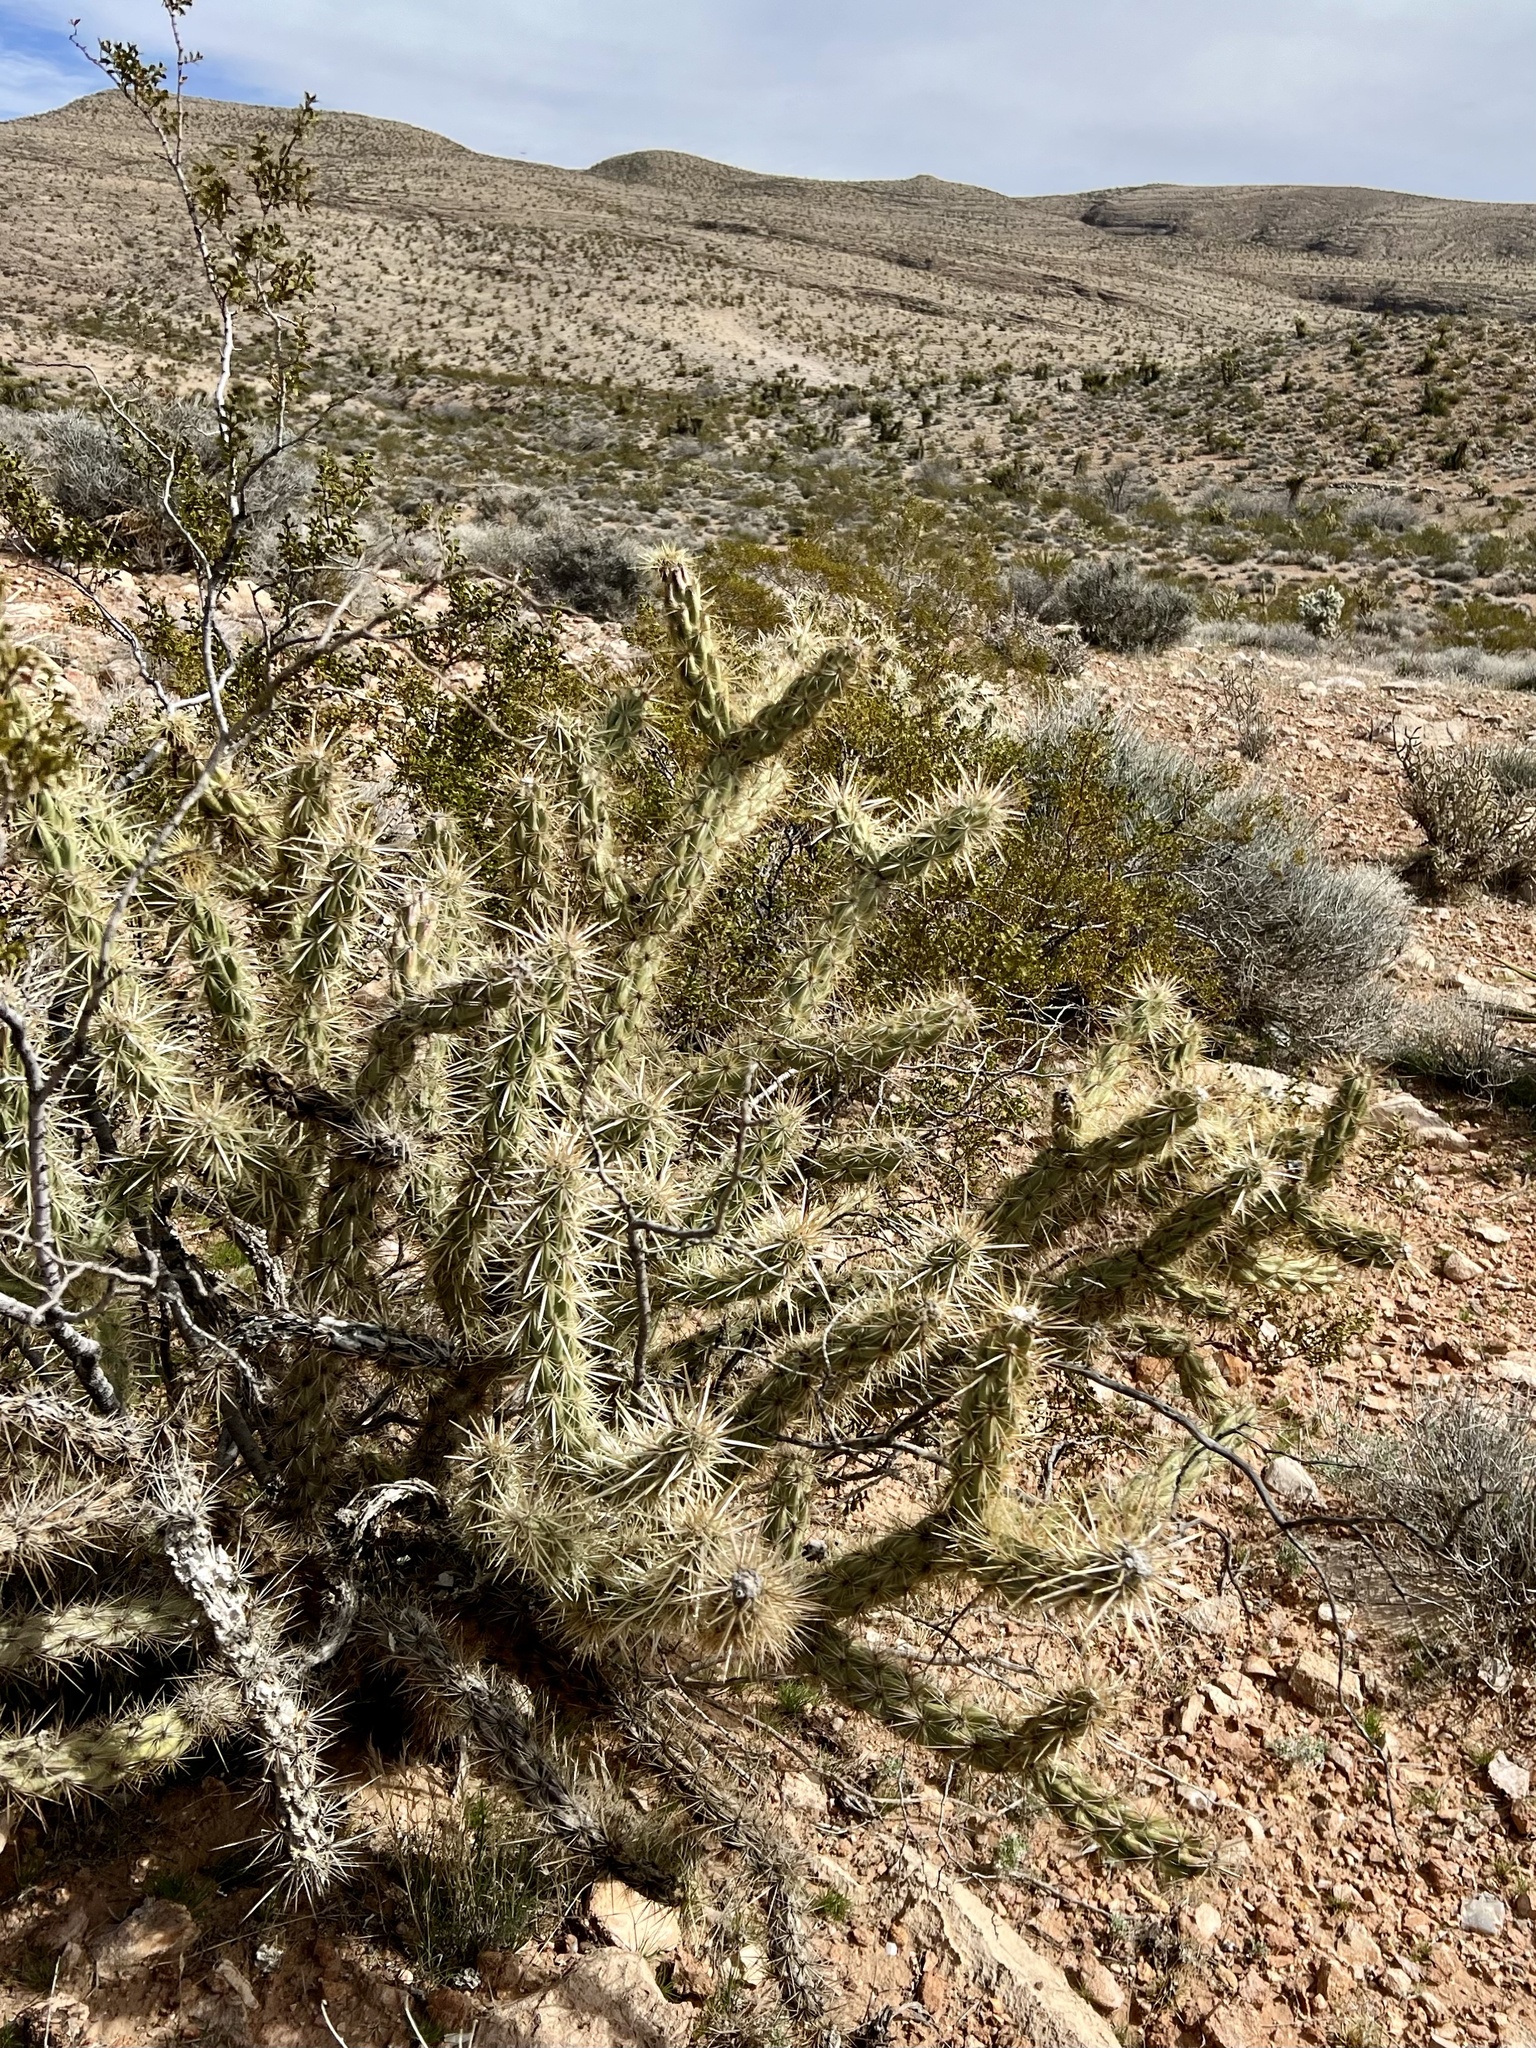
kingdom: Plantae
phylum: Tracheophyta
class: Magnoliopsida
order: Caryophyllales
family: Cactaceae
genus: Cylindropuntia
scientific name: Cylindropuntia acanthocarpa
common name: Buckhorn cholla
